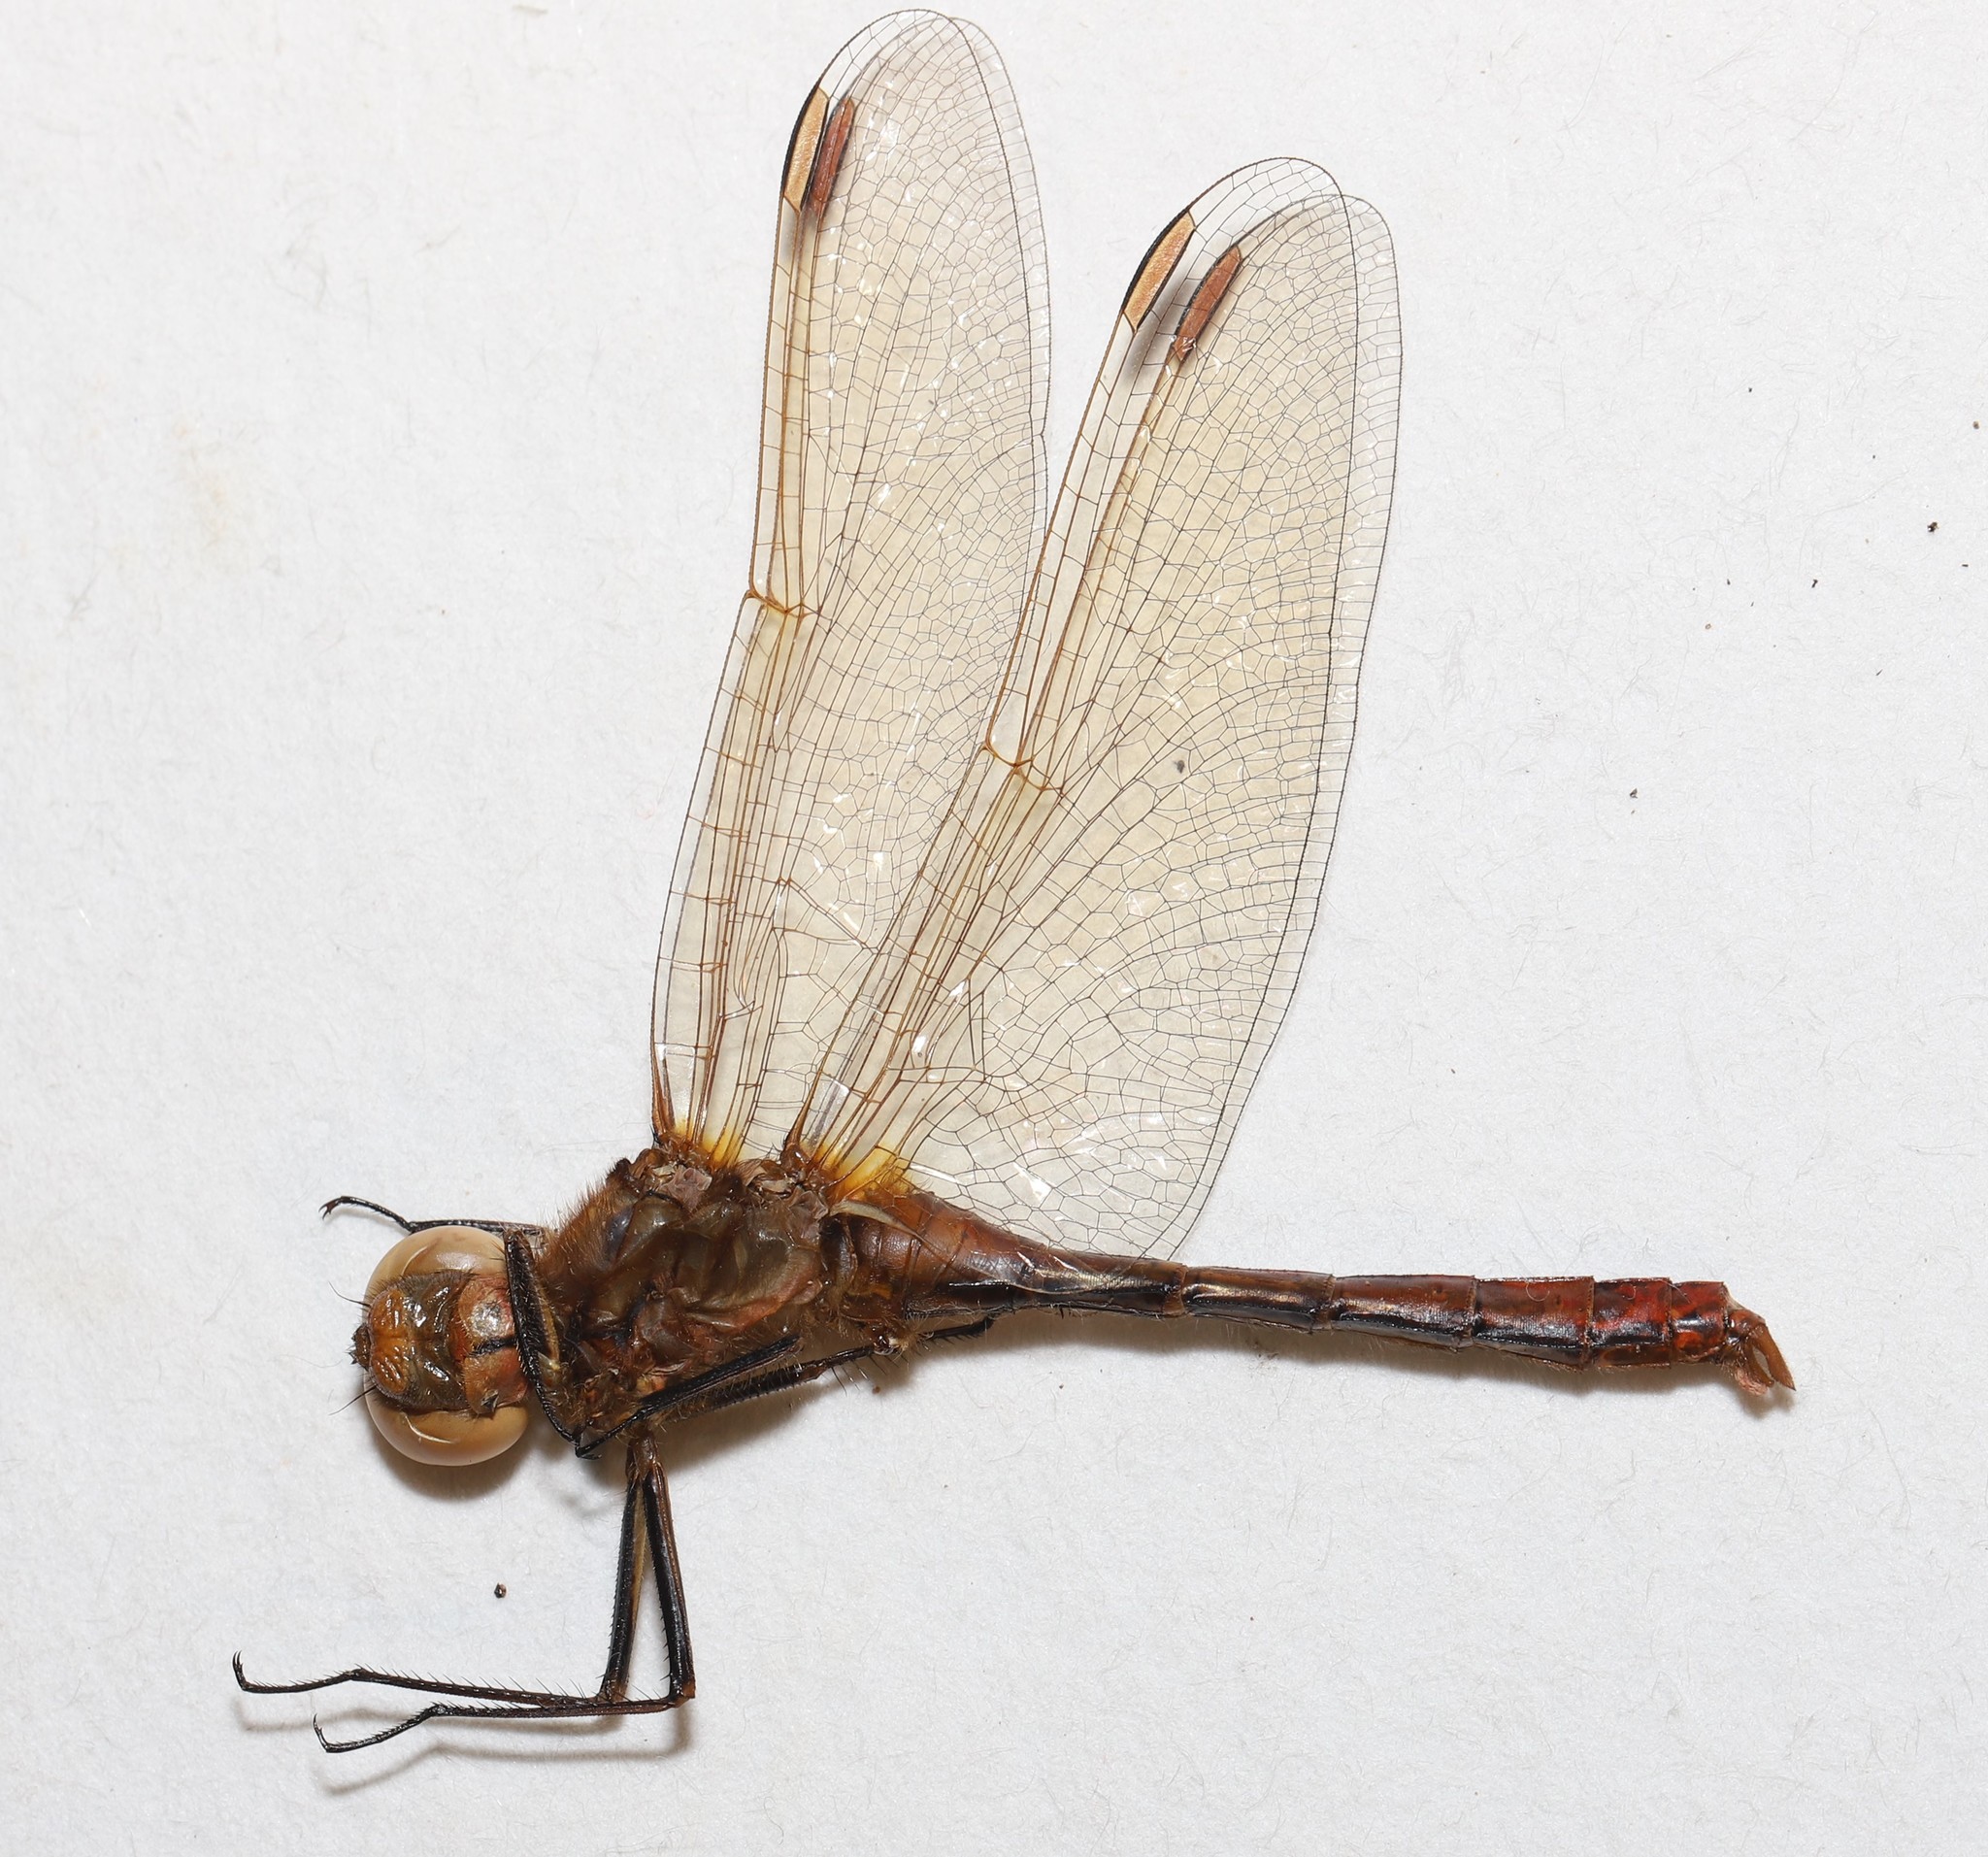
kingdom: Animalia
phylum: Arthropoda
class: Insecta
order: Odonata
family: Libellulidae
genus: Sympetrum
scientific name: Sympetrum costiferum
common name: Saffron-winged meadowhawk
